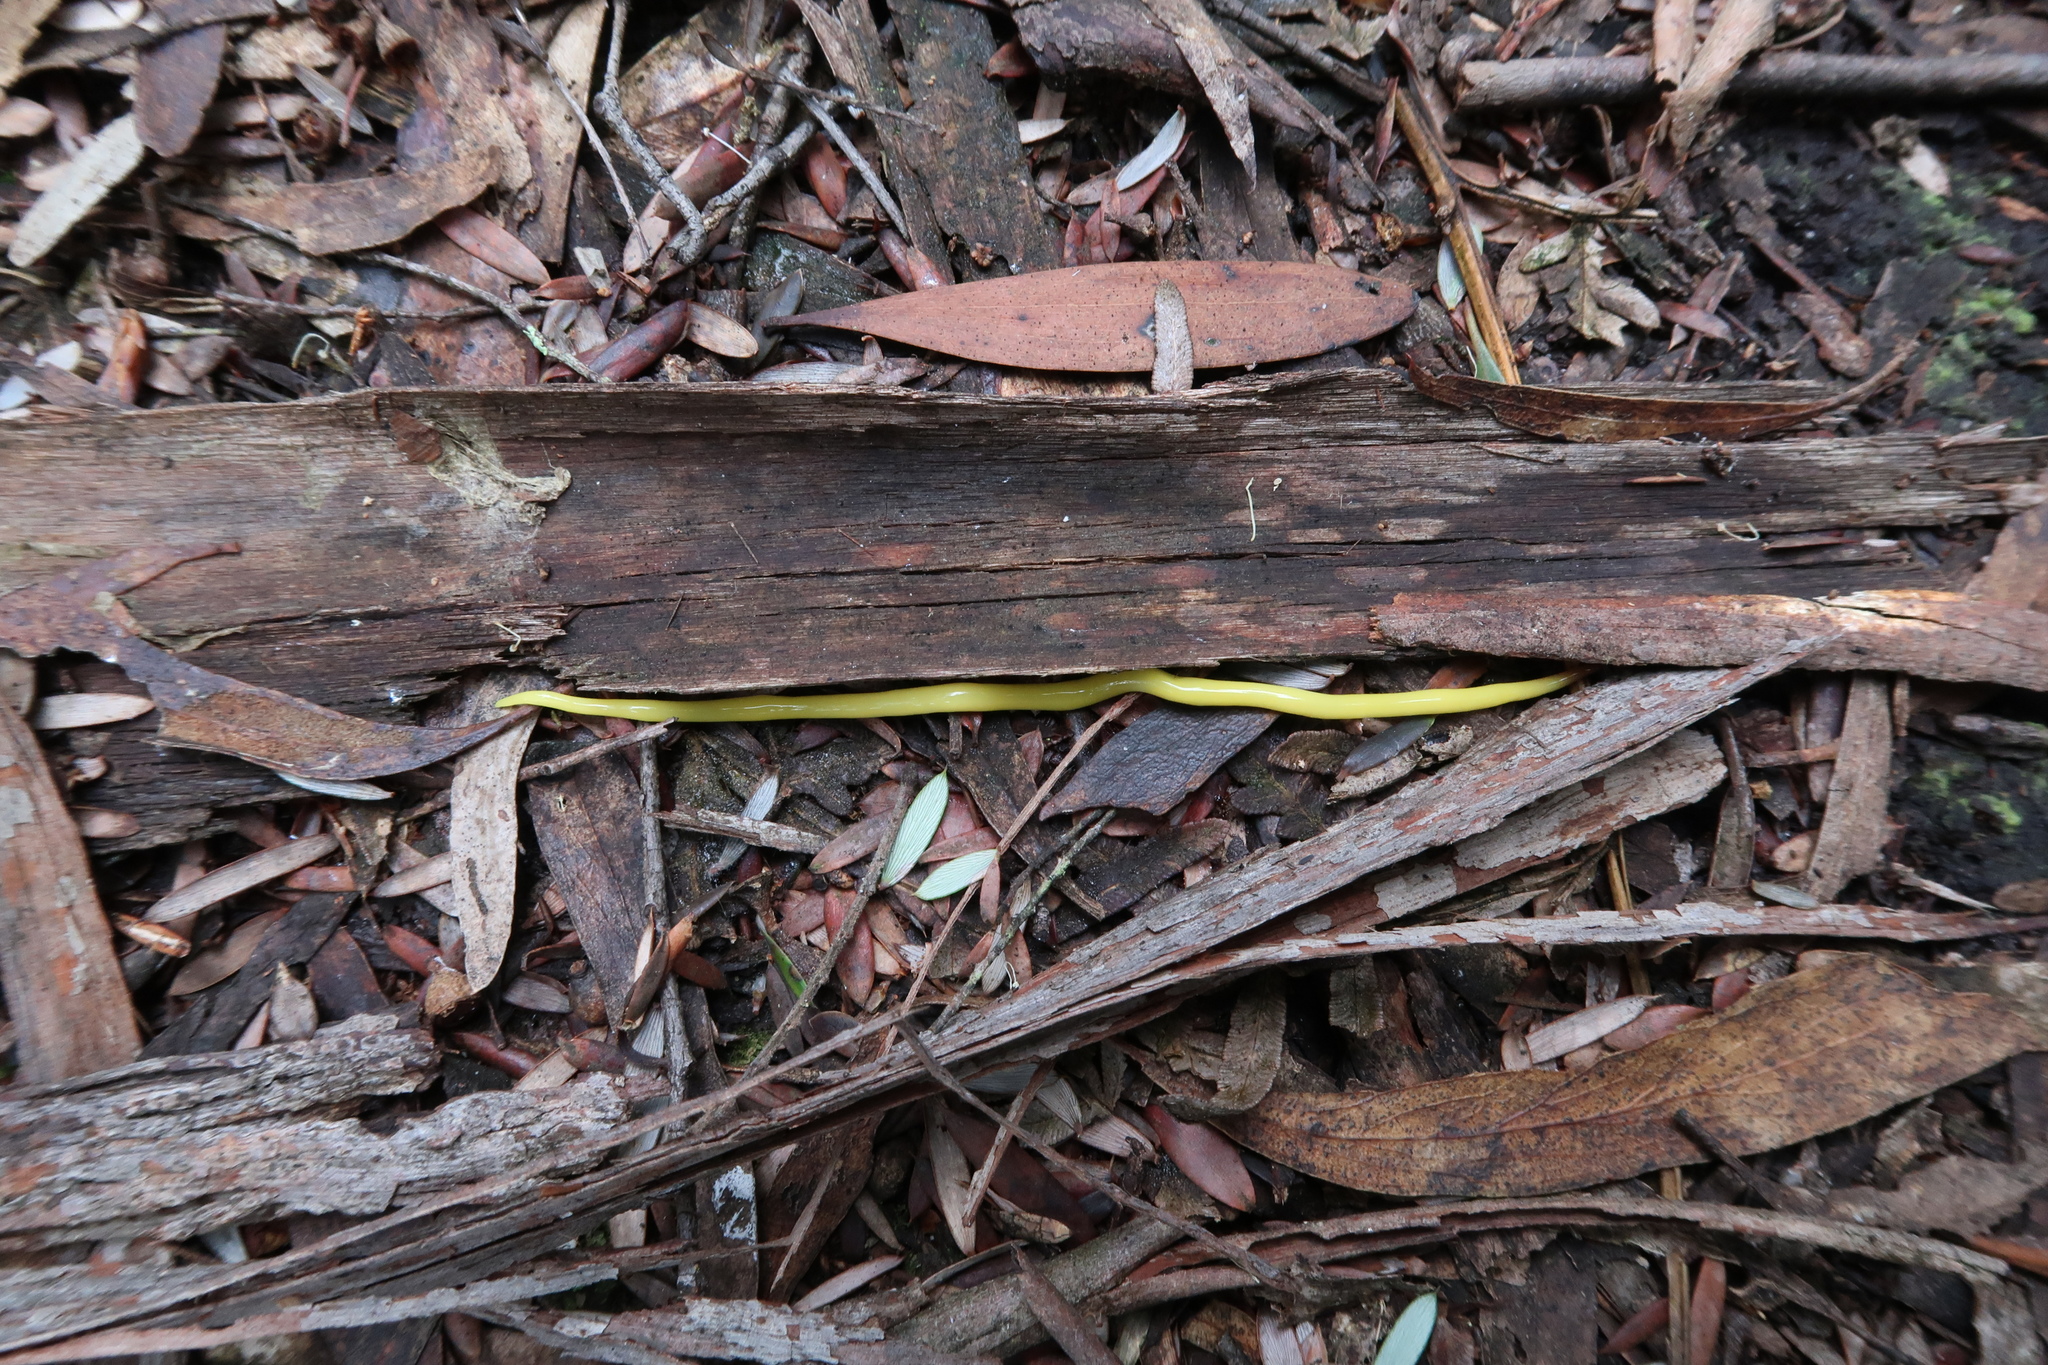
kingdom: Animalia
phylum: Platyhelminthes
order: Tricladida
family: Geoplanidae
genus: Fletchamia
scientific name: Fletchamia sugdeni
